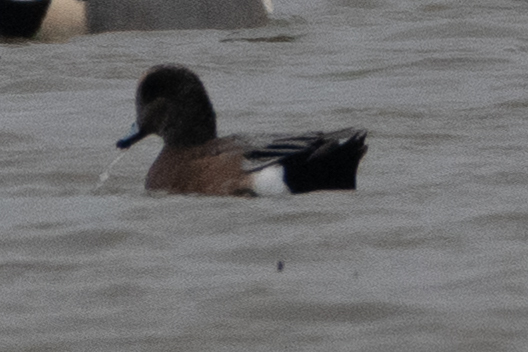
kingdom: Animalia
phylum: Chordata
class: Aves
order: Anseriformes
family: Anatidae
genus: Mareca
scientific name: Mareca americana
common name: American wigeon
